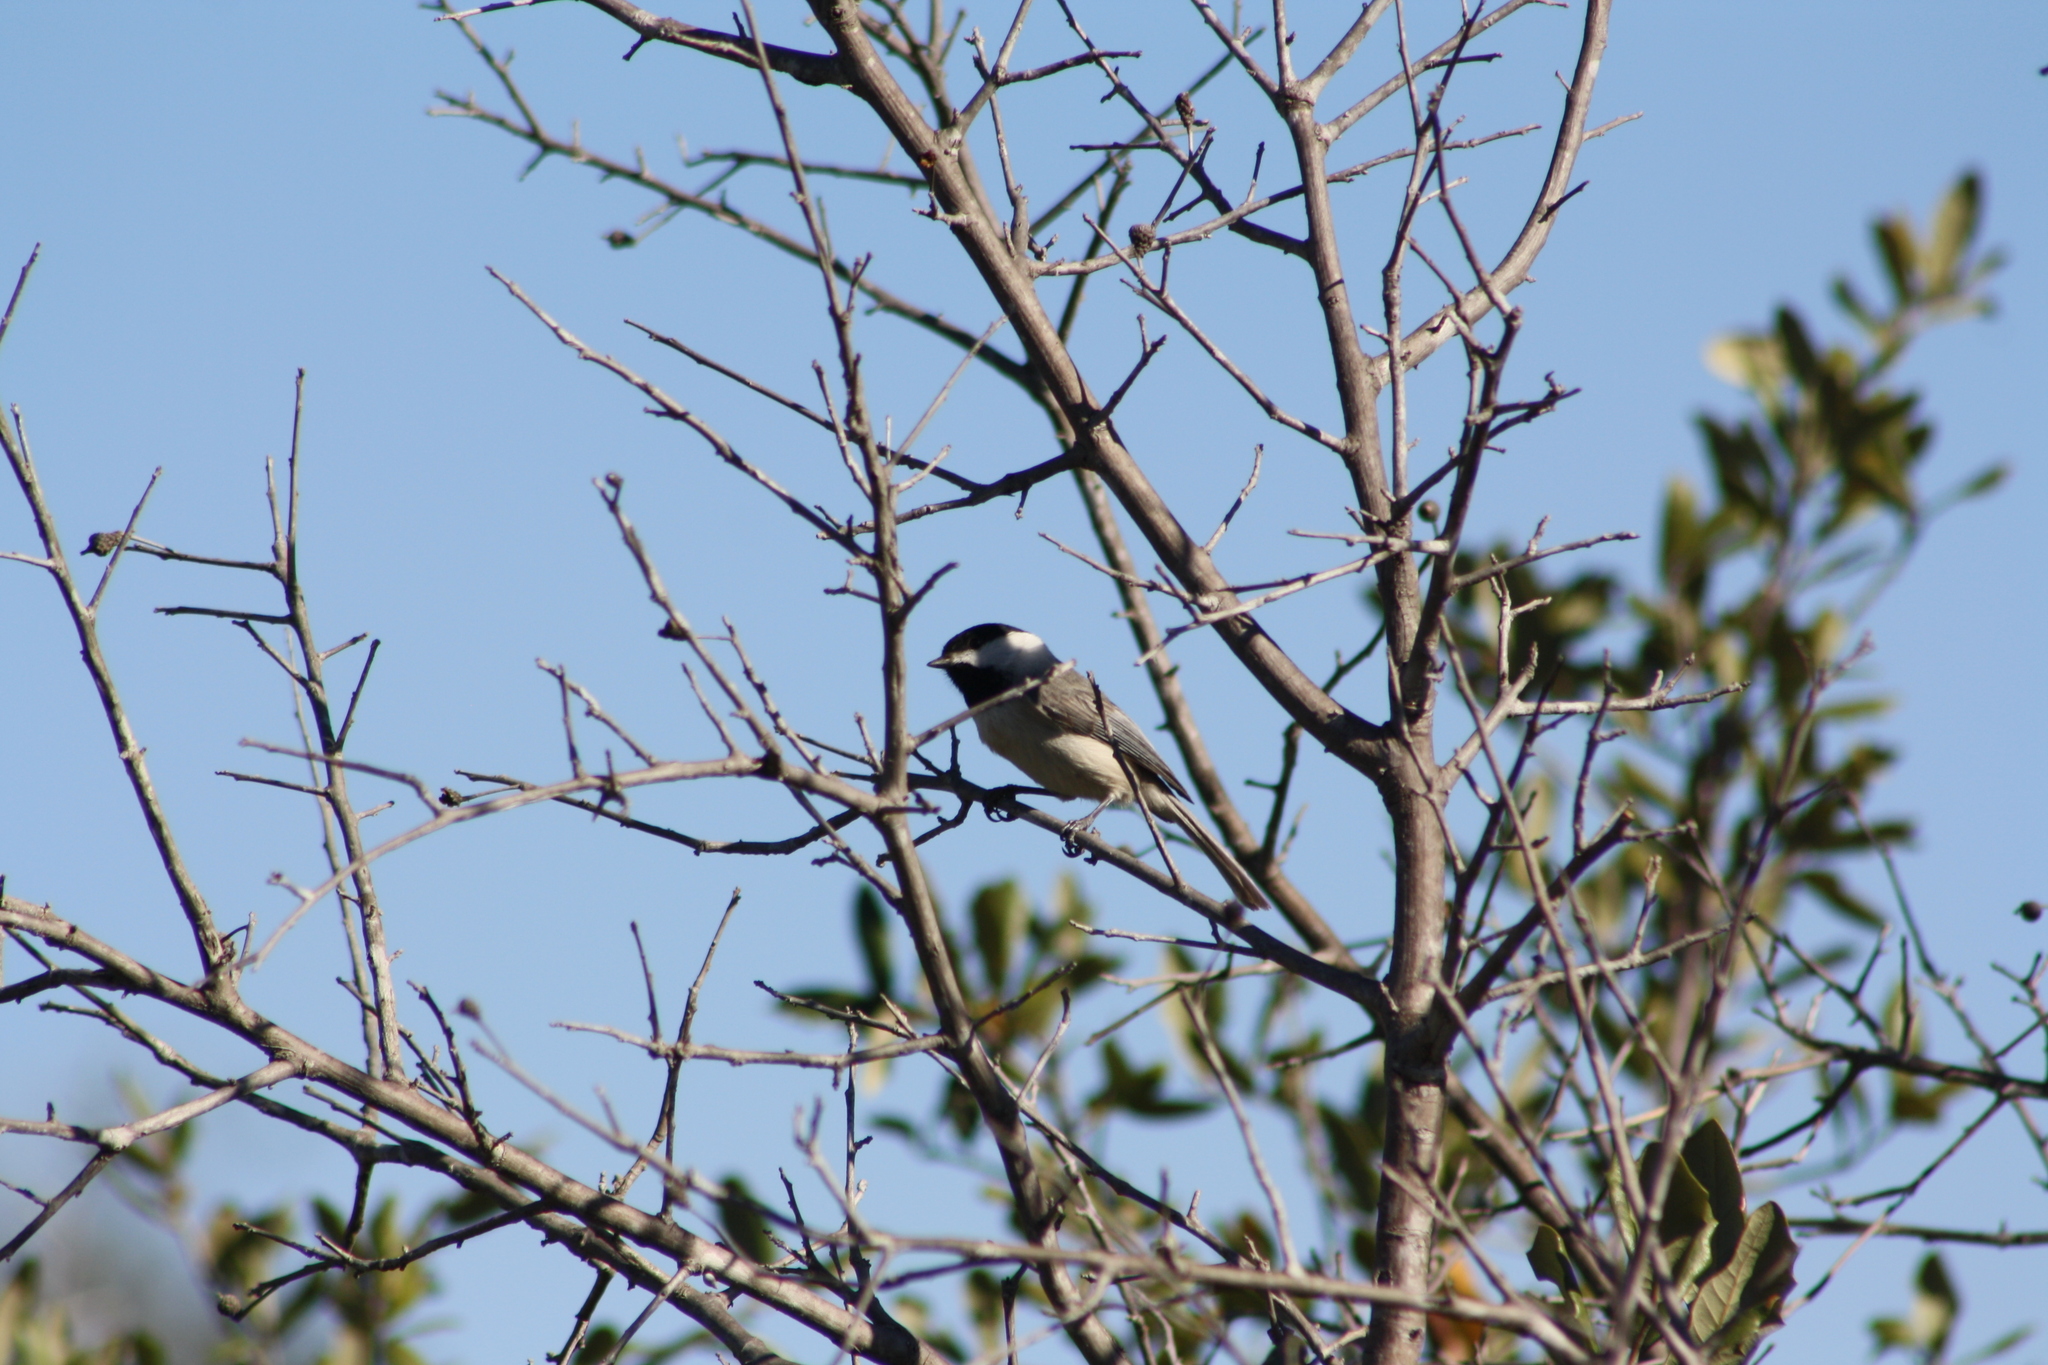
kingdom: Animalia
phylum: Chordata
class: Aves
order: Passeriformes
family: Paridae
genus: Poecile
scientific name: Poecile carolinensis
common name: Carolina chickadee
